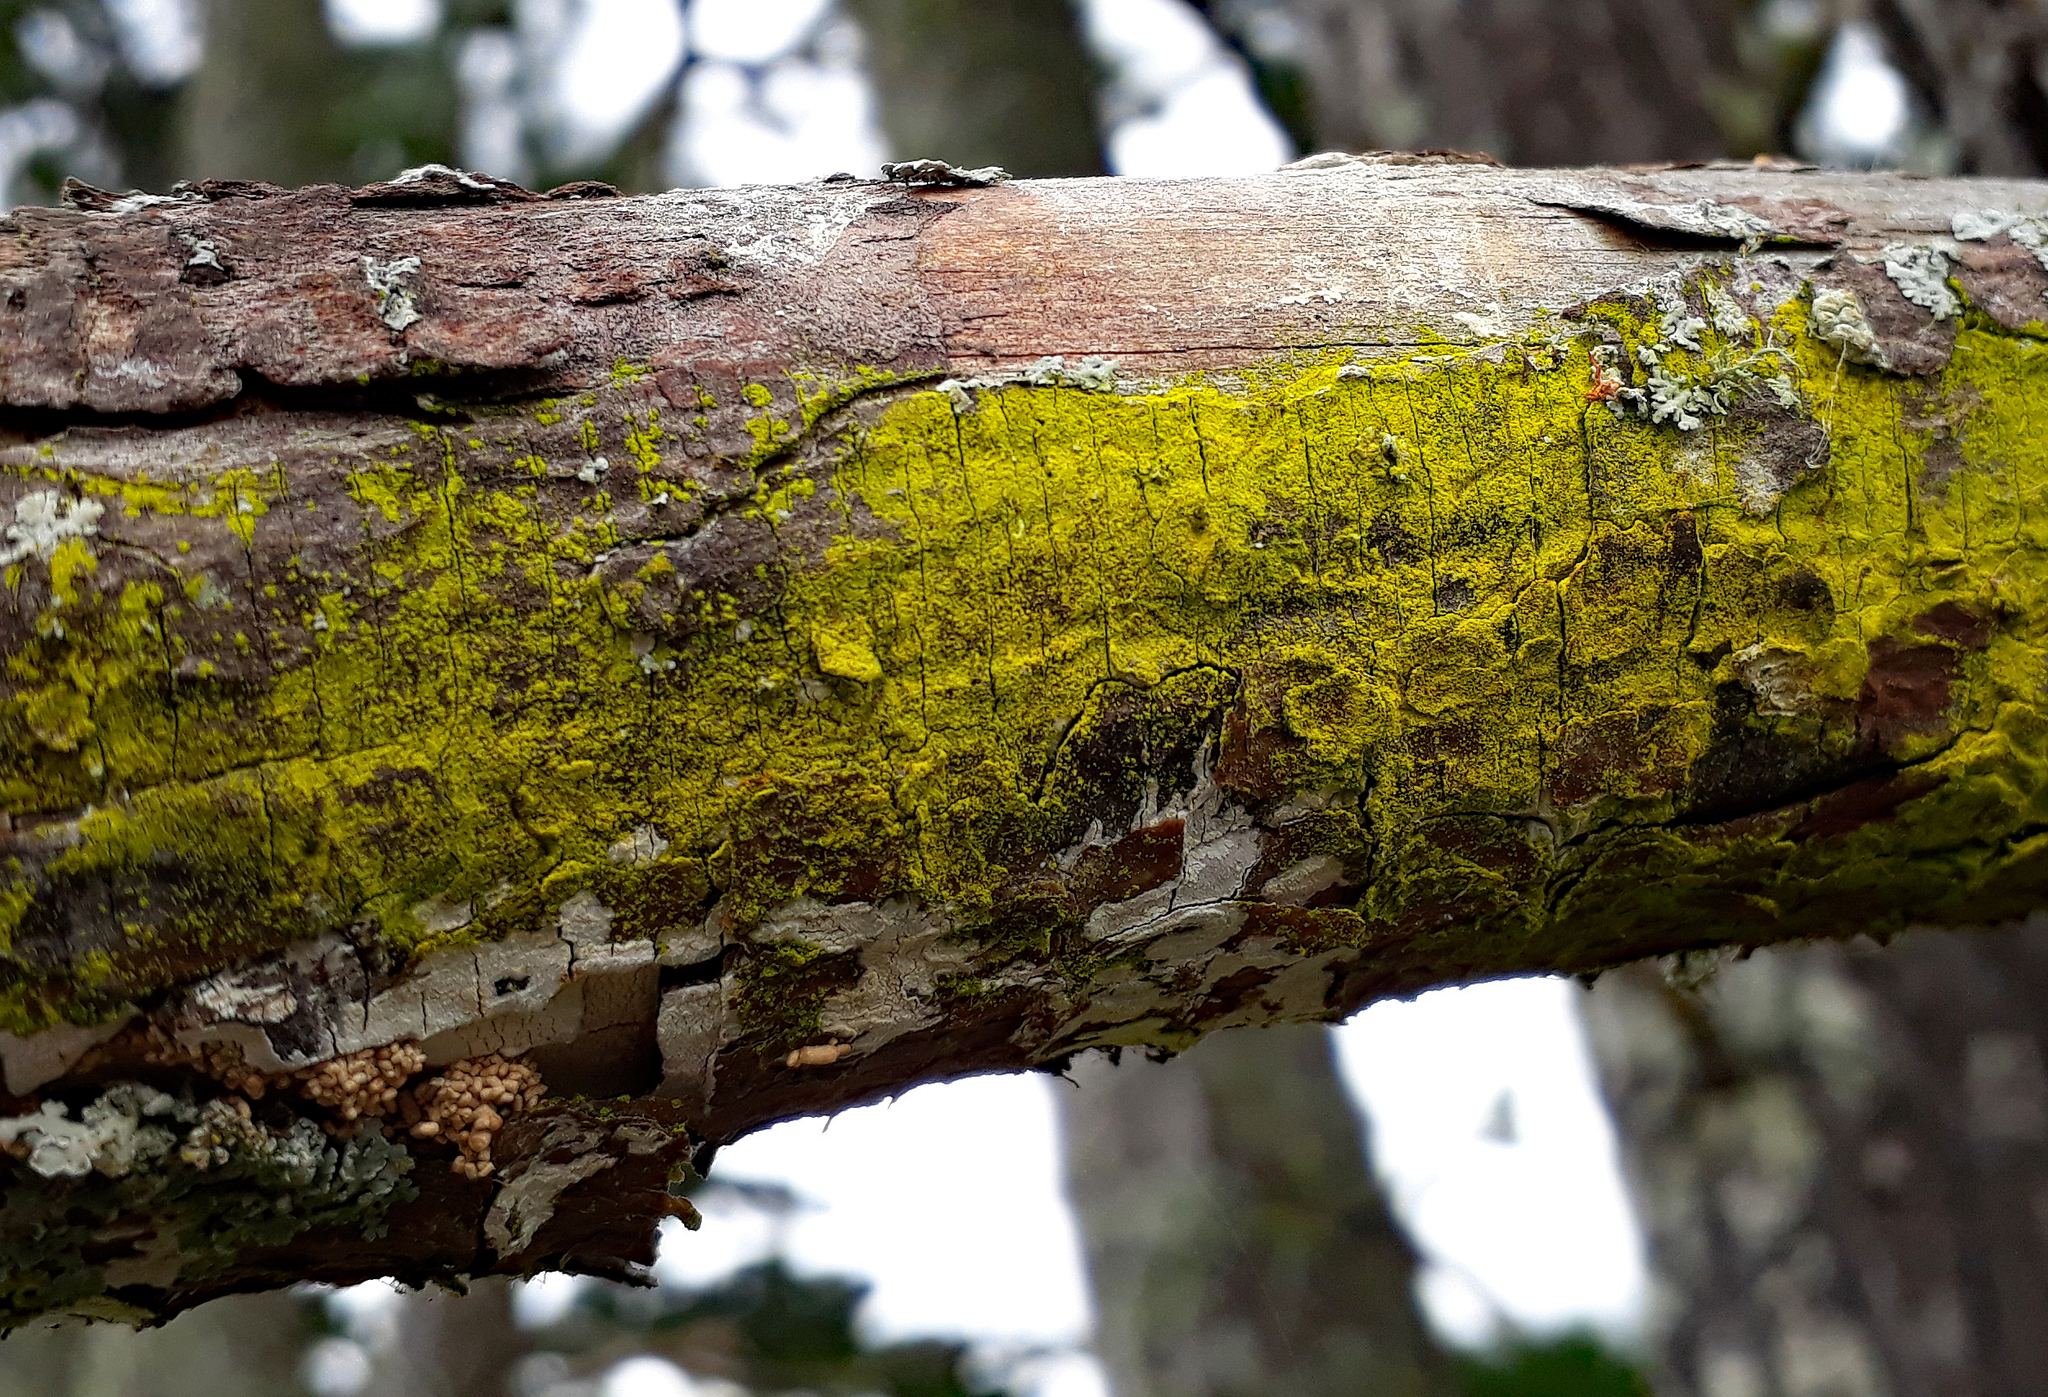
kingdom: Fungi
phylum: Ascomycota
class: Arthoniomycetes
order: Arthoniales
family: Chrysotrichaceae
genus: Chrysothrix
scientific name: Chrysothrix xanthina
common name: Common gold-dust
